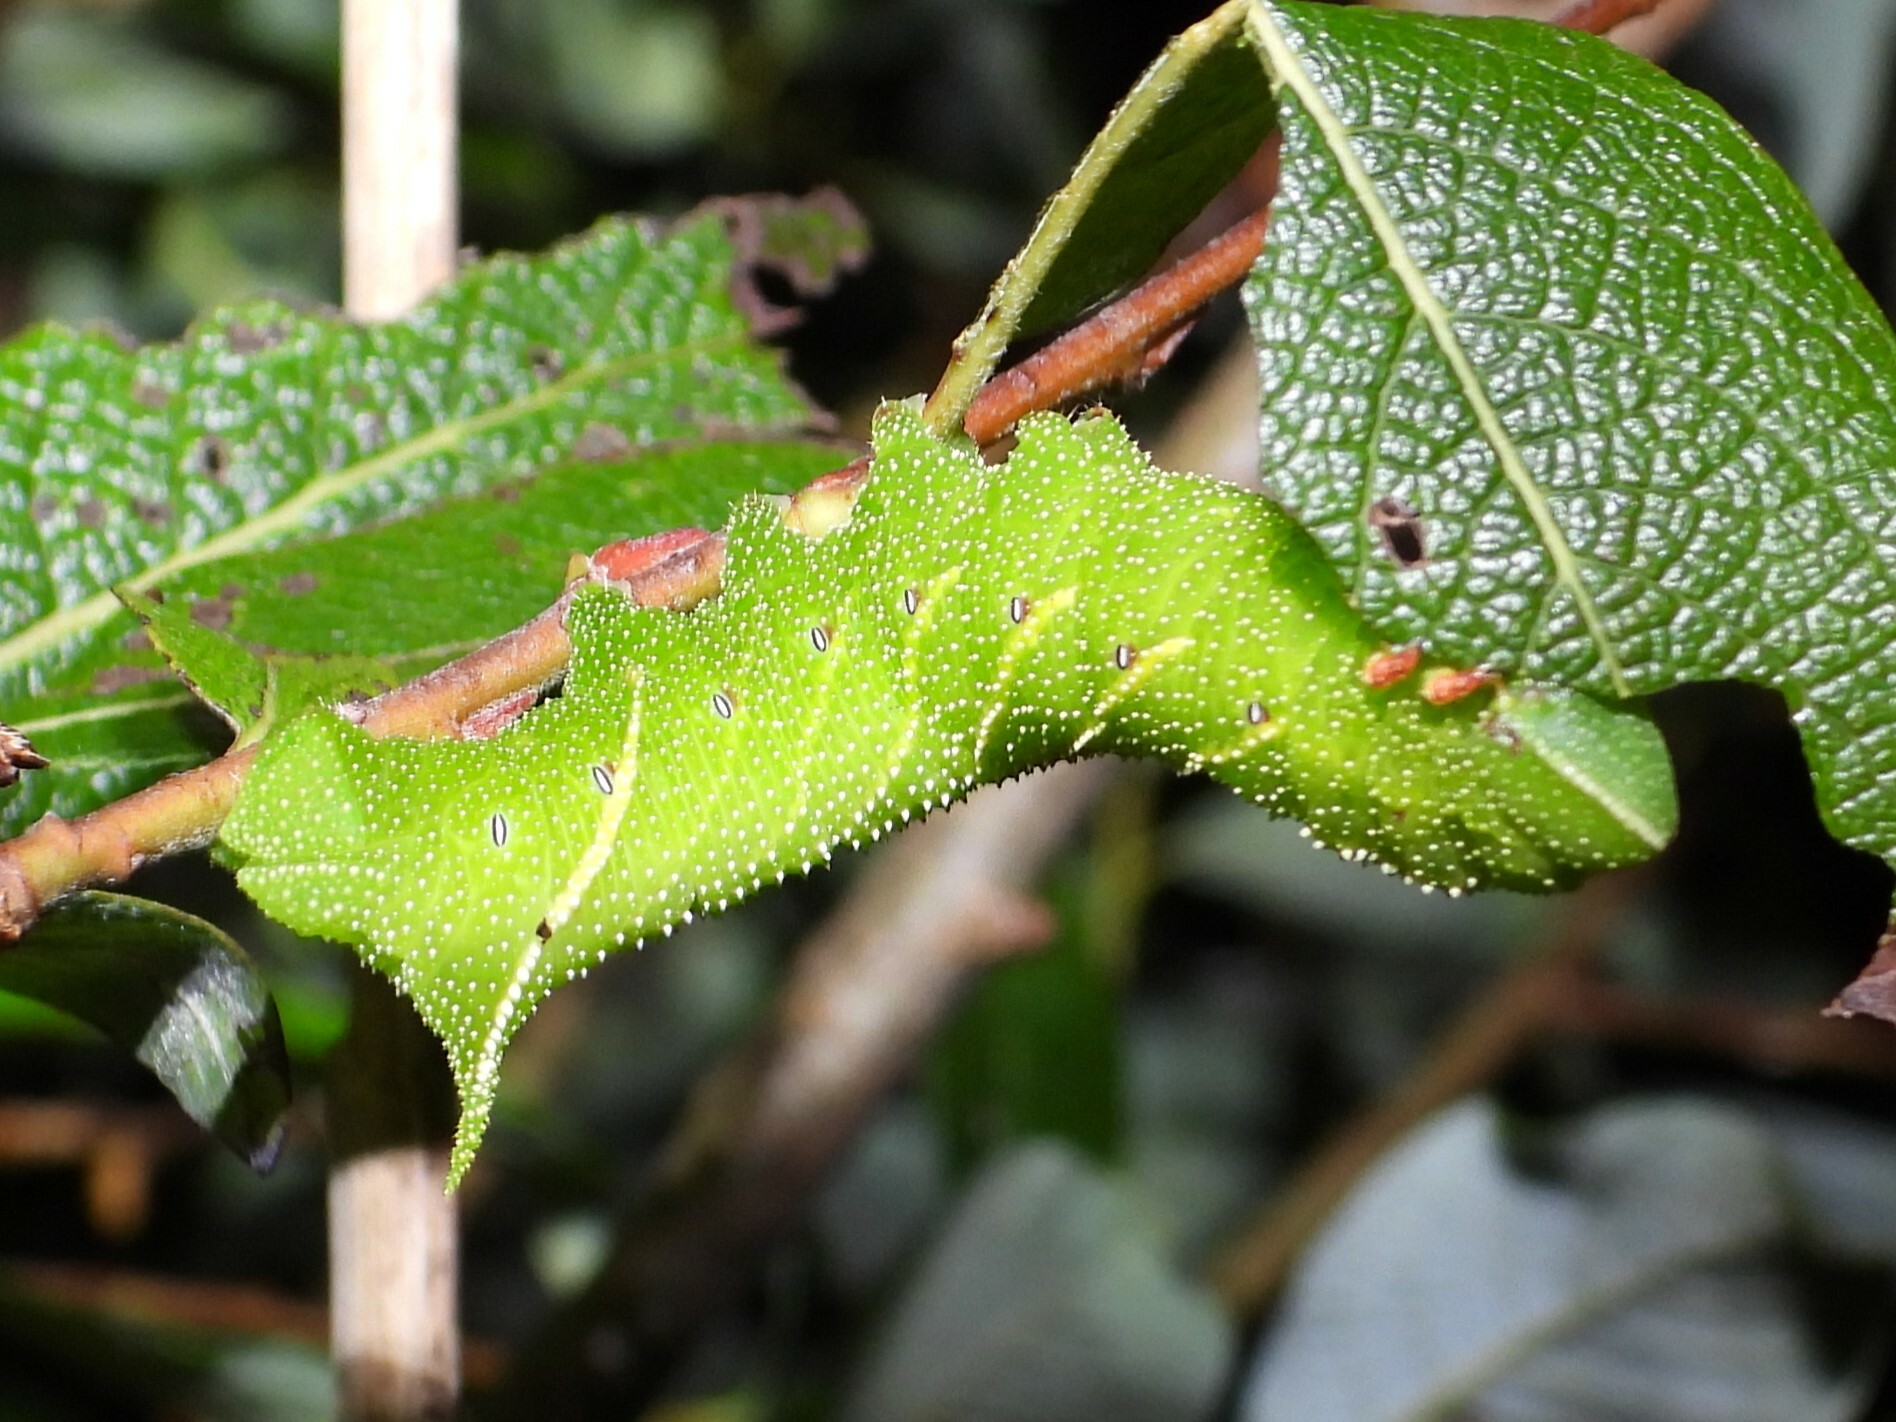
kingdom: Animalia
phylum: Arthropoda
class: Insecta
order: Lepidoptera
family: Sphingidae
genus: Paonias
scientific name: Paonias excaecata
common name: Blind-eyed sphinx
